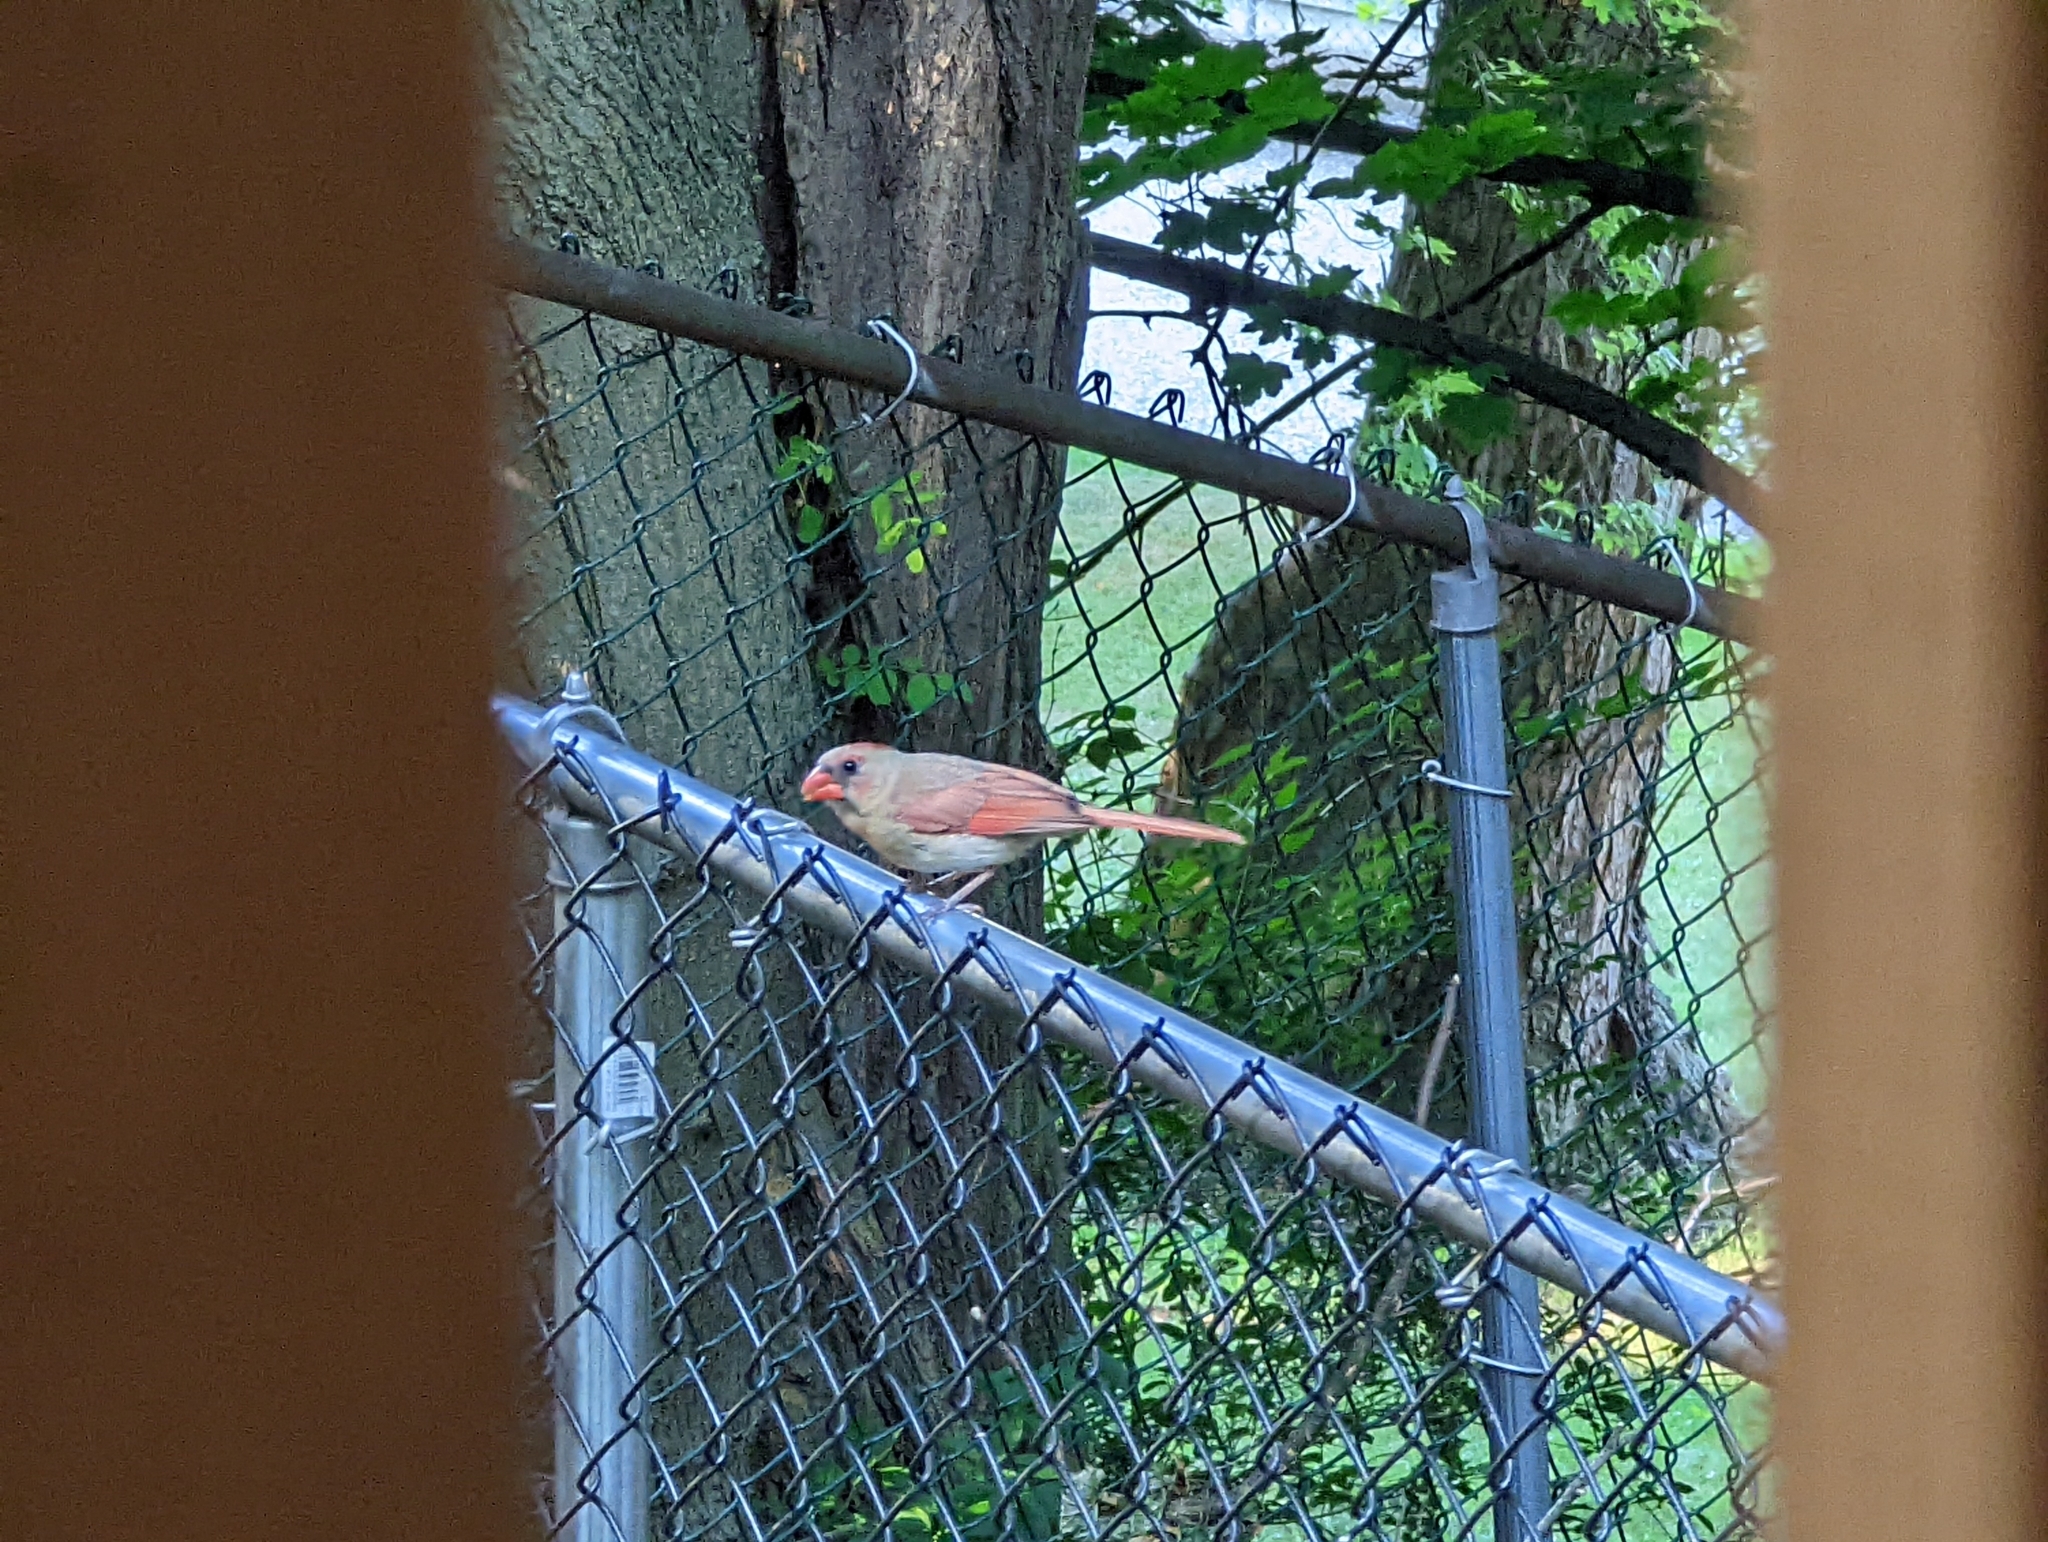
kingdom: Animalia
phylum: Chordata
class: Aves
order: Passeriformes
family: Cardinalidae
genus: Cardinalis
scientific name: Cardinalis cardinalis
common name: Northern cardinal
